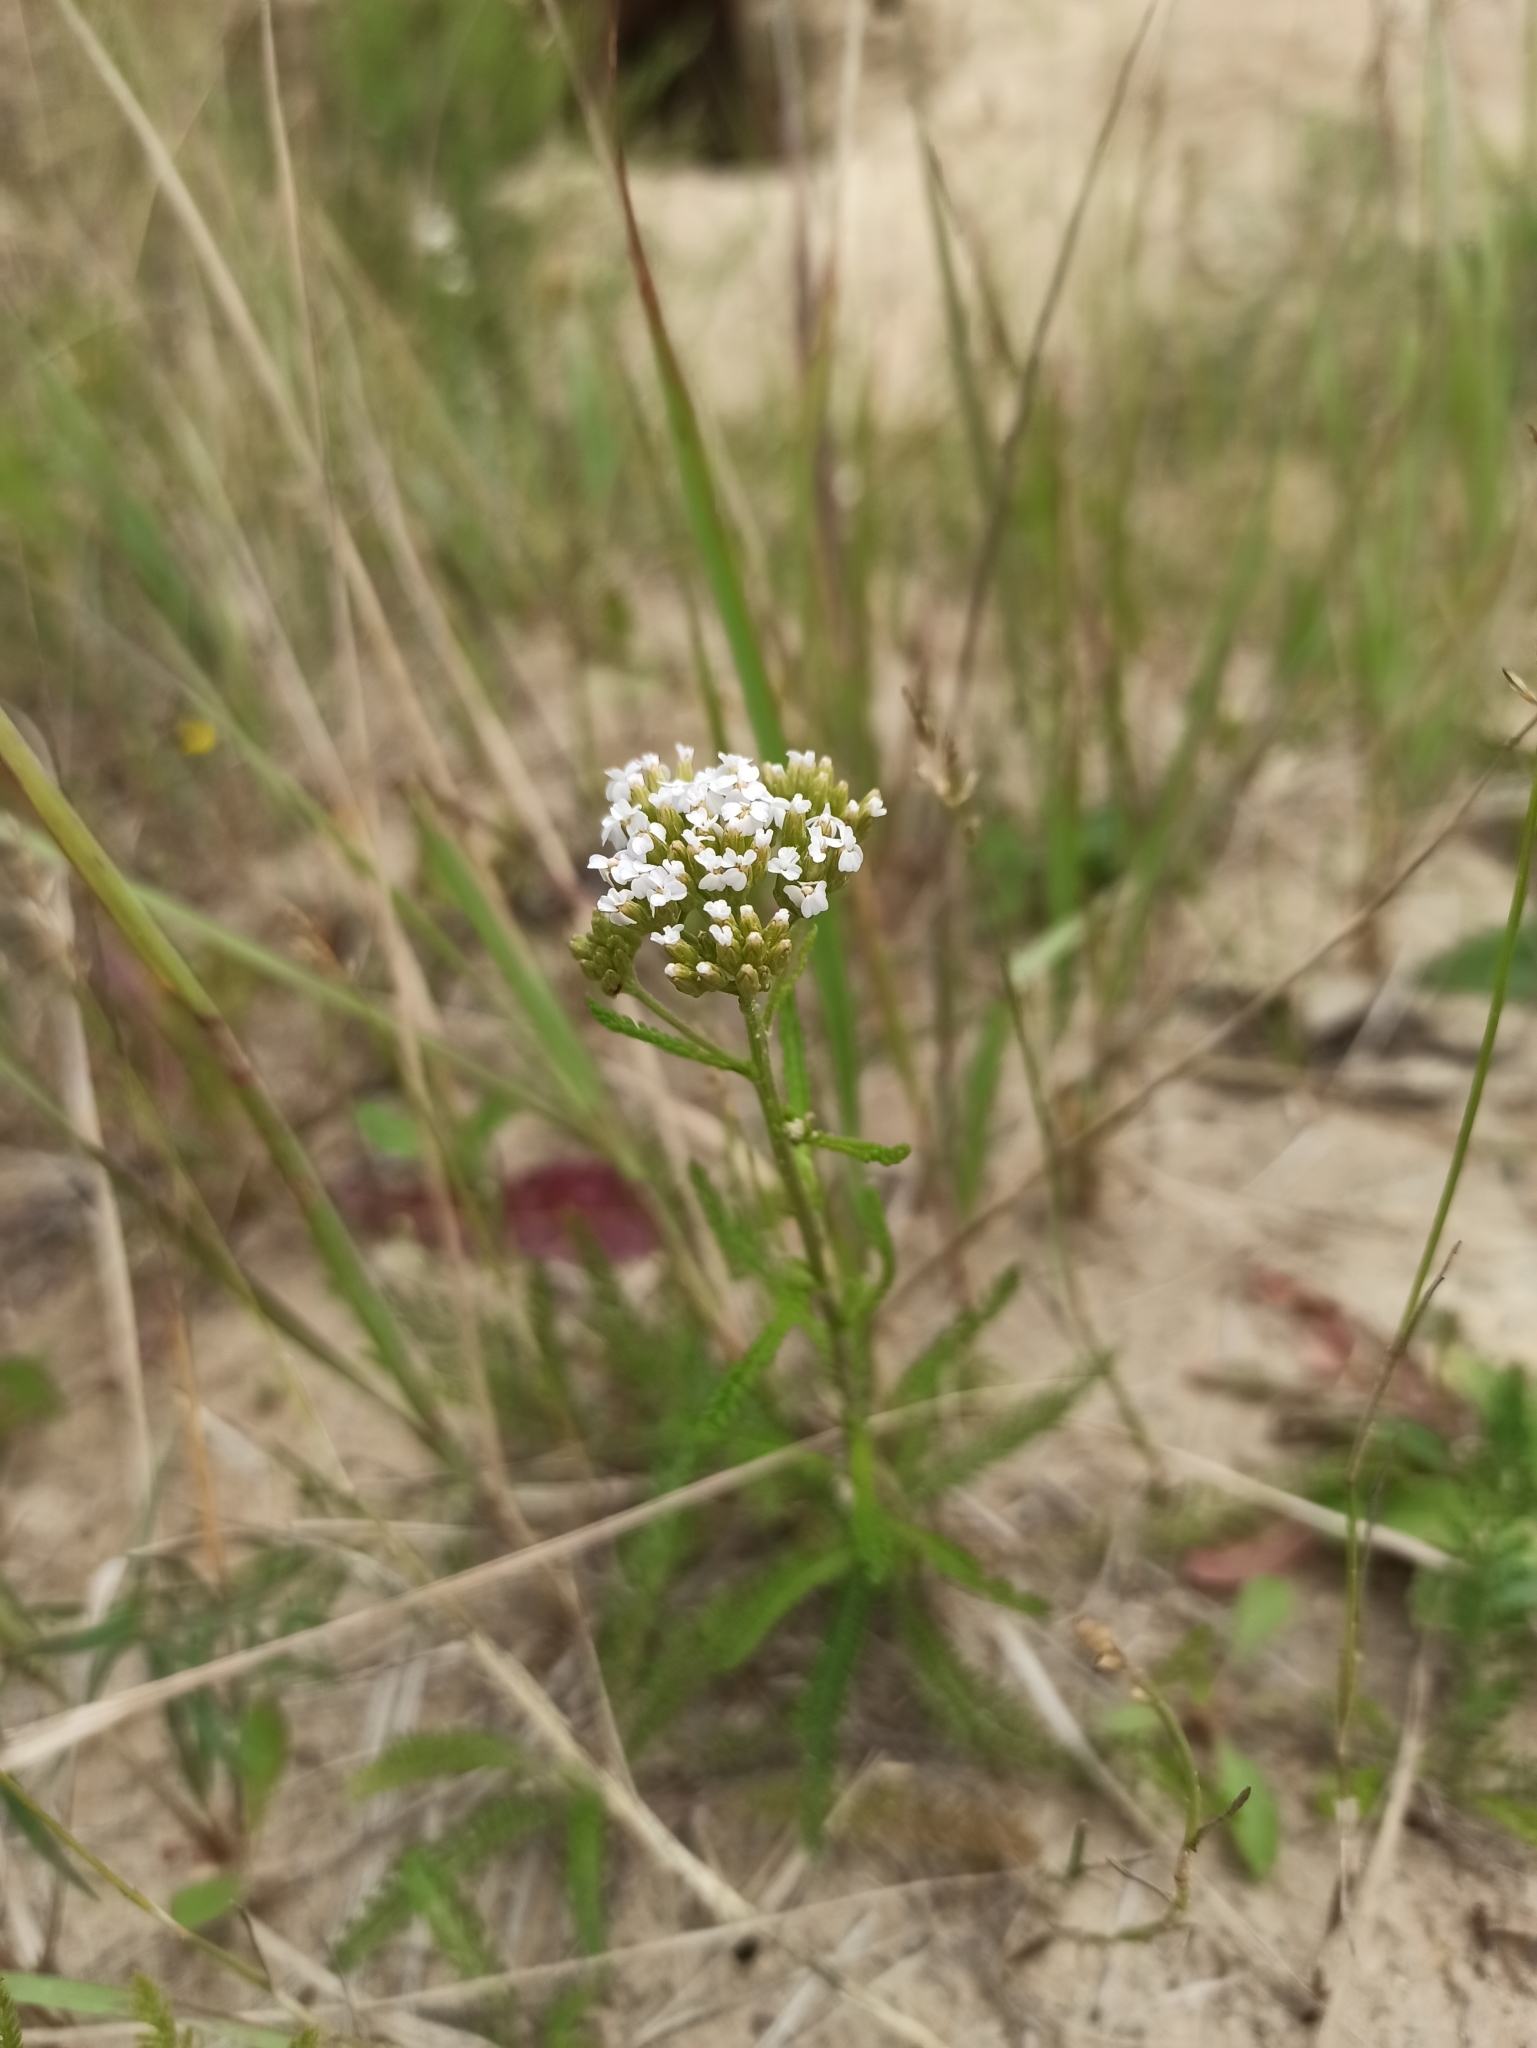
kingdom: Plantae
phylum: Tracheophyta
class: Magnoliopsida
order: Asterales
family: Asteraceae
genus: Achillea
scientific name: Achillea millefolium
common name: Yarrow
